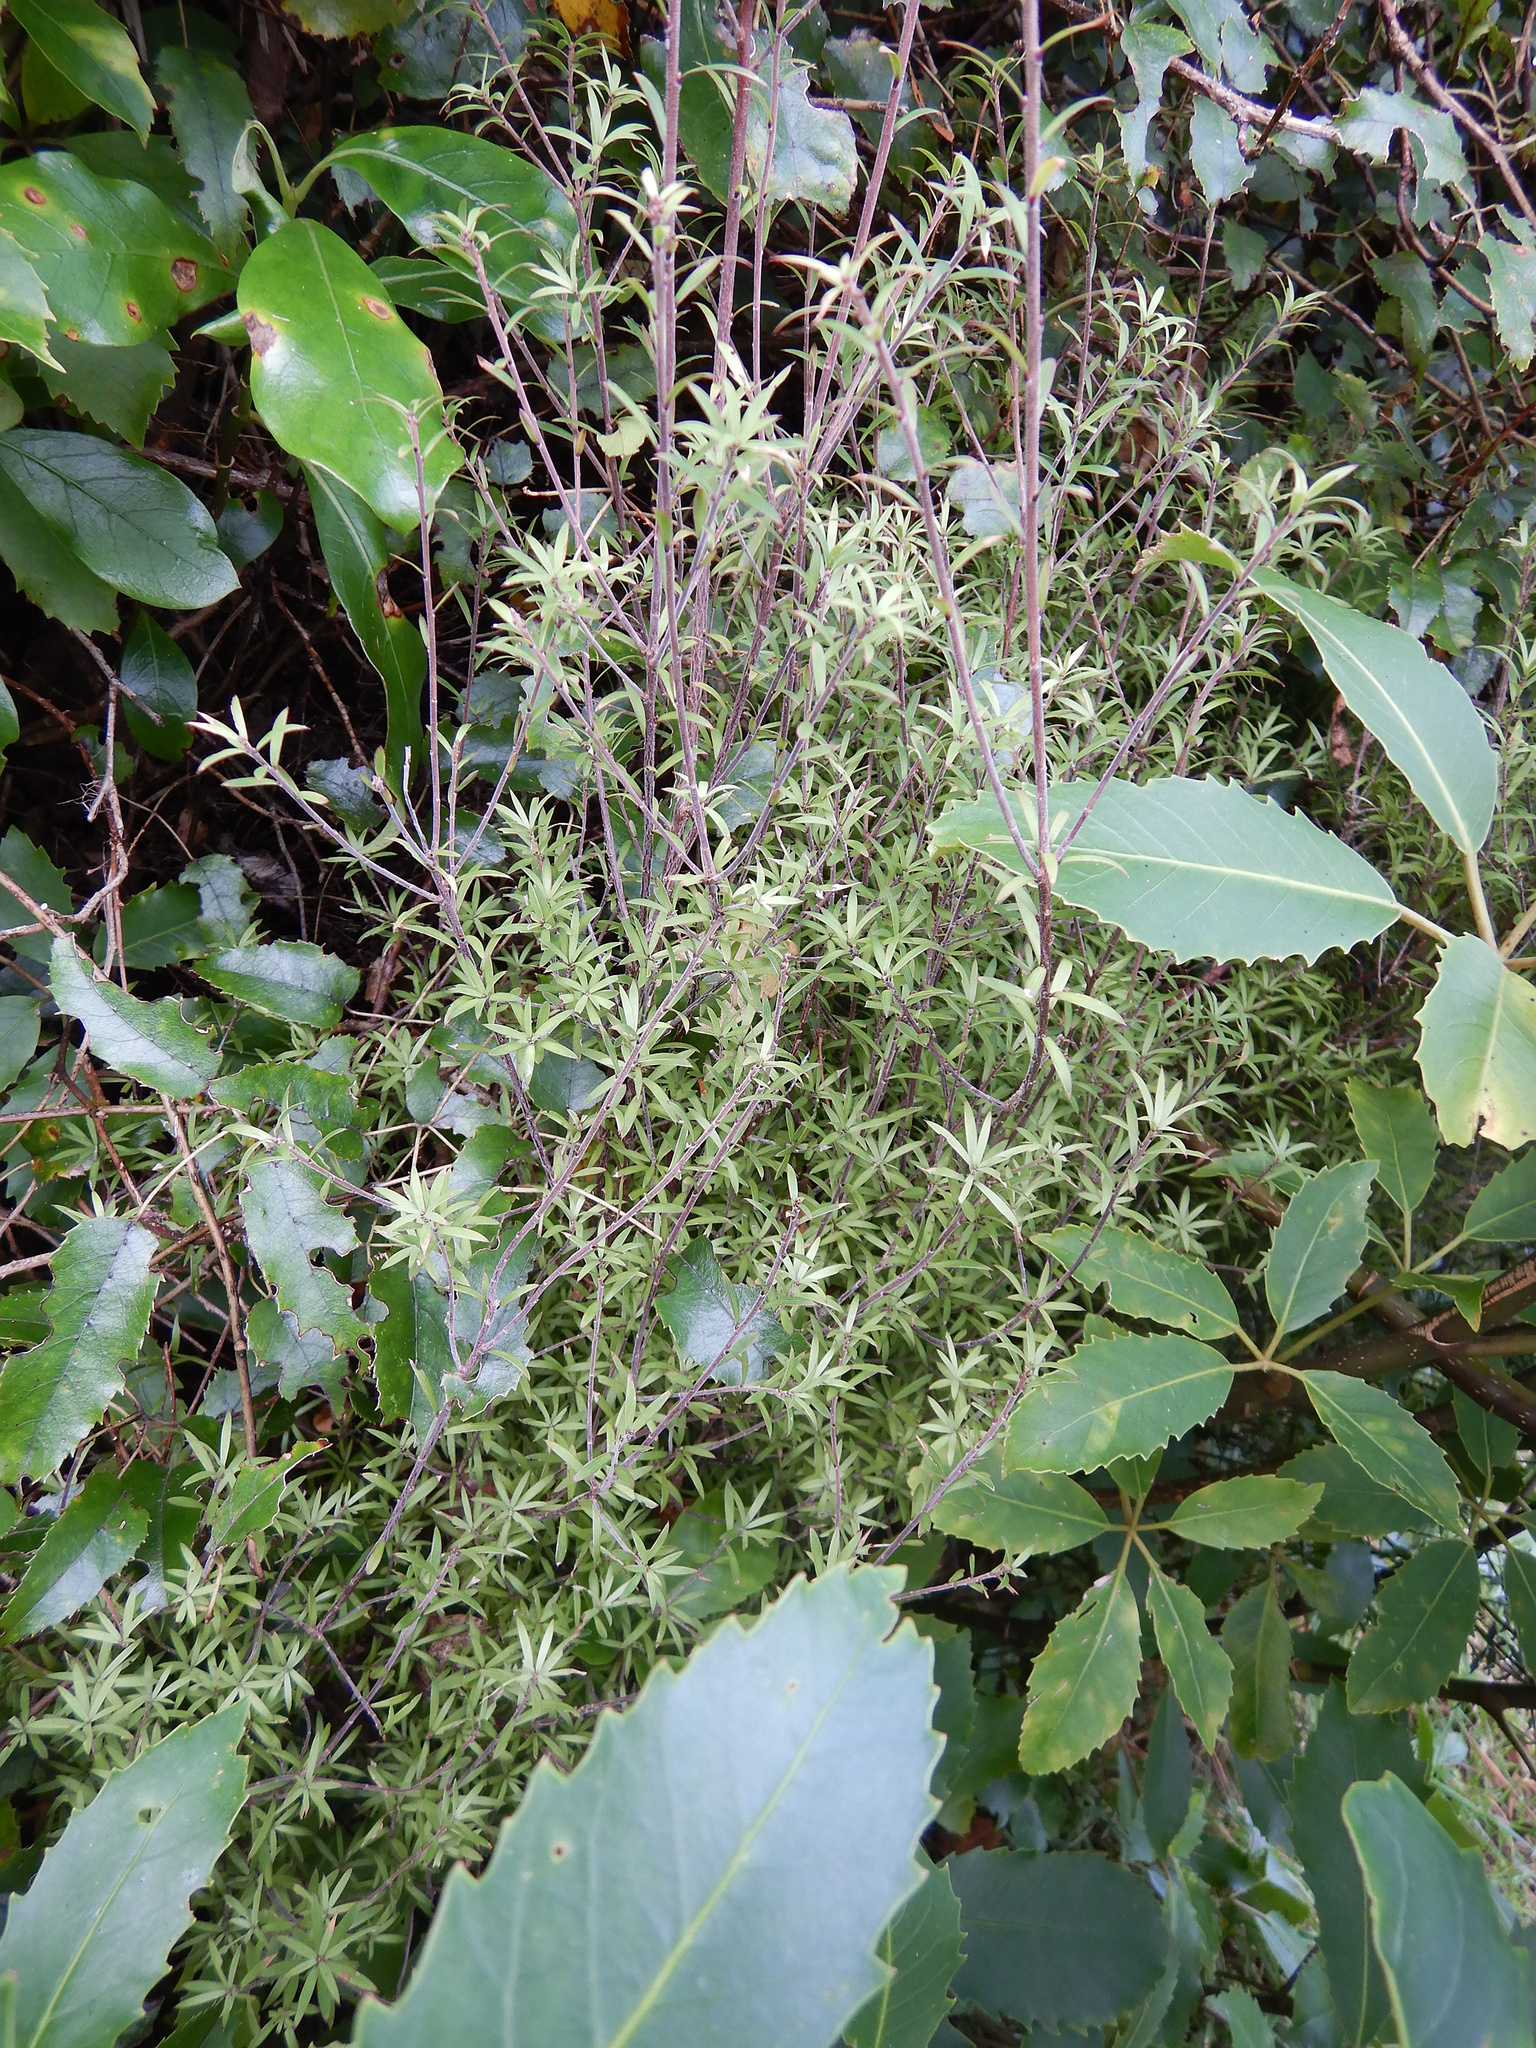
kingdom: Plantae
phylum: Tracheophyta
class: Magnoliopsida
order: Myrtales
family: Myrtaceae
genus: Kunzea
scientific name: Kunzea robusta
